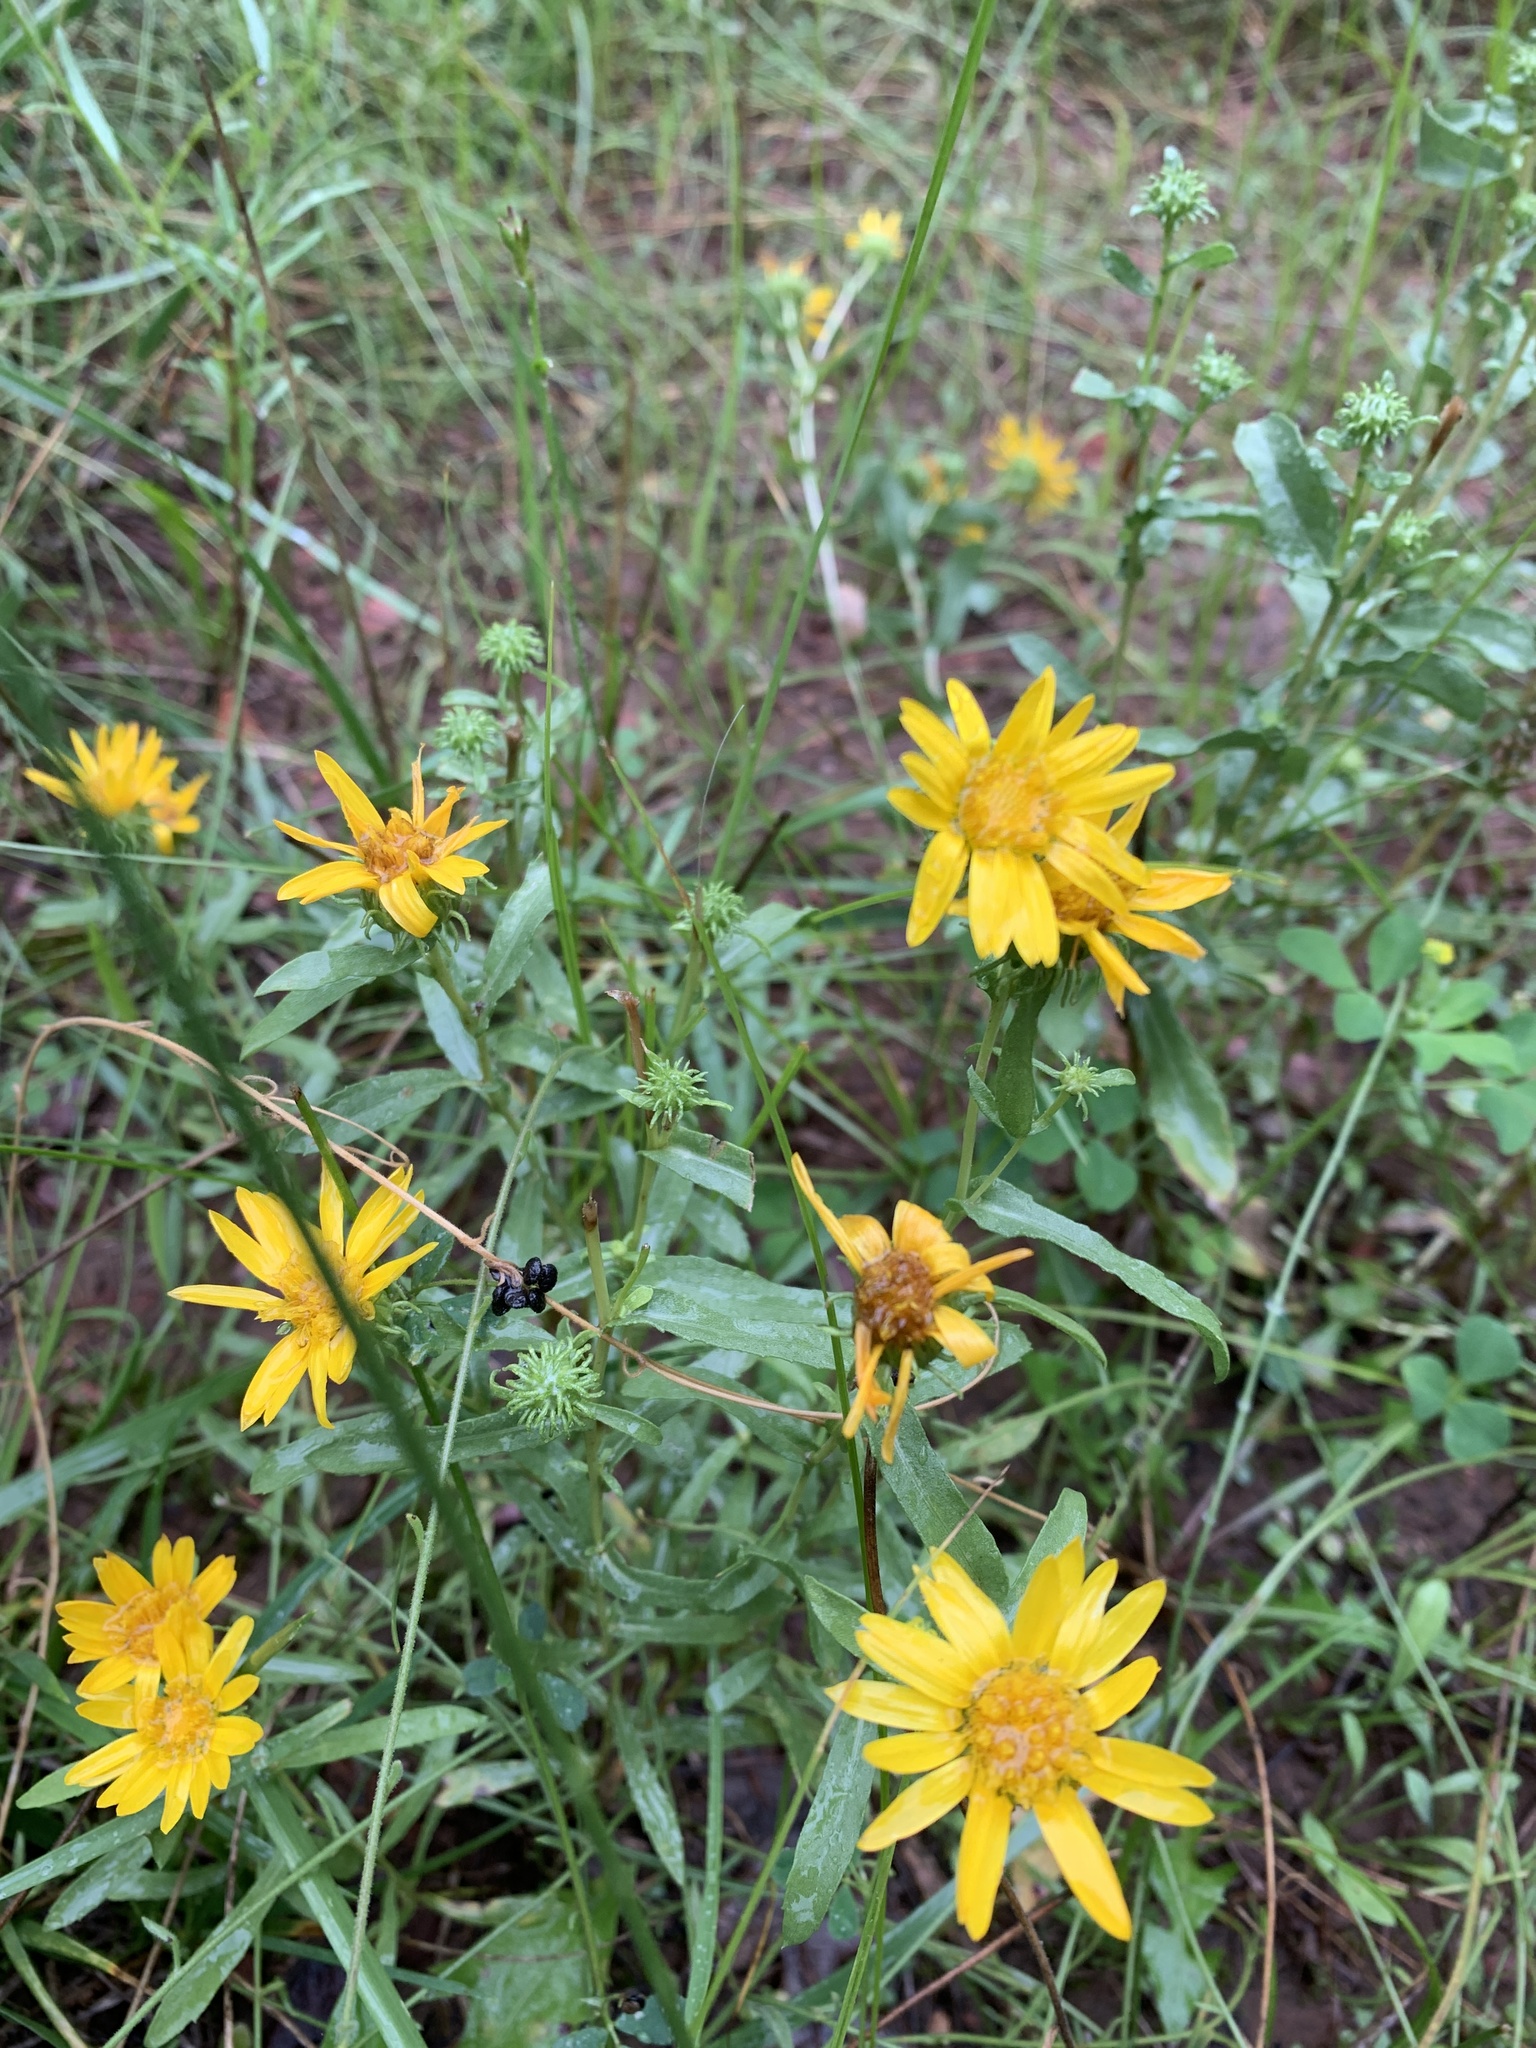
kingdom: Plantae
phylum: Tracheophyta
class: Magnoliopsida
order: Asterales
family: Asteraceae
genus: Grindelia
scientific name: Grindelia squarrosa
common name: Curly-cup gumweed
